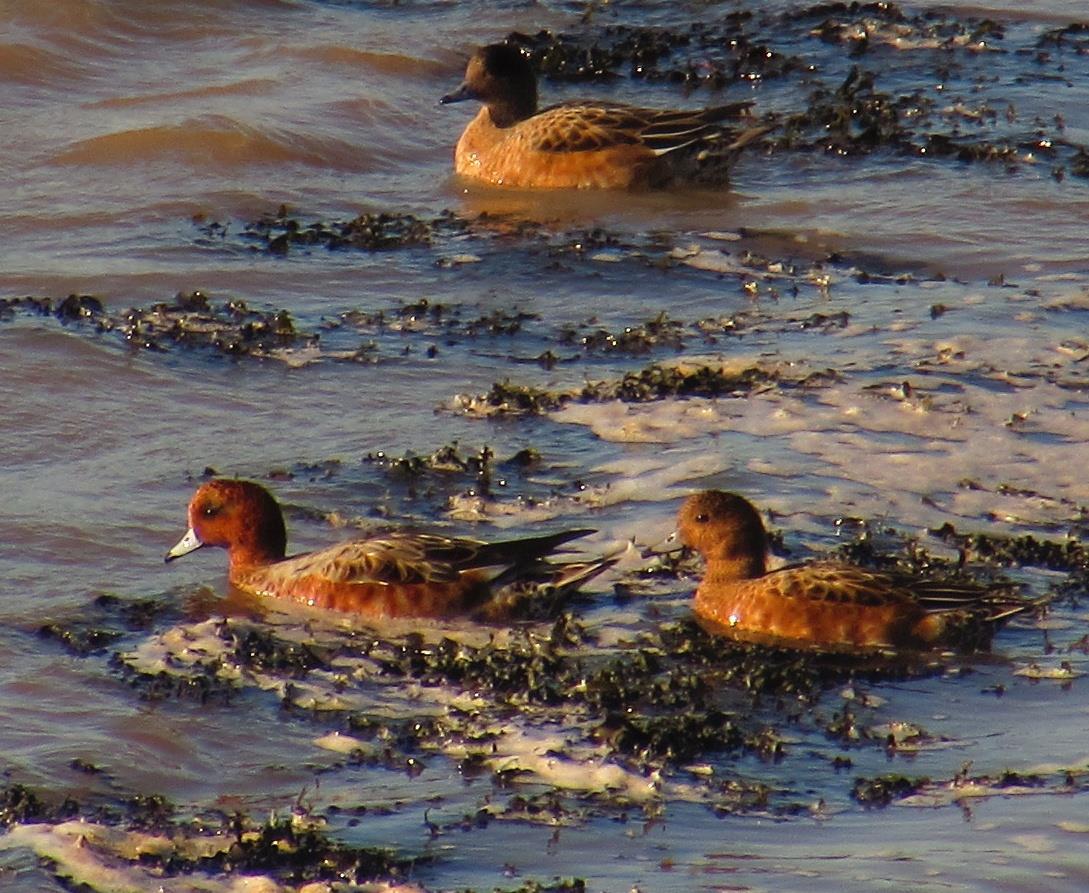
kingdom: Animalia
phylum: Chordata
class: Aves
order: Anseriformes
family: Anatidae
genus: Mareca
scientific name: Mareca penelope
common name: Eurasian wigeon
